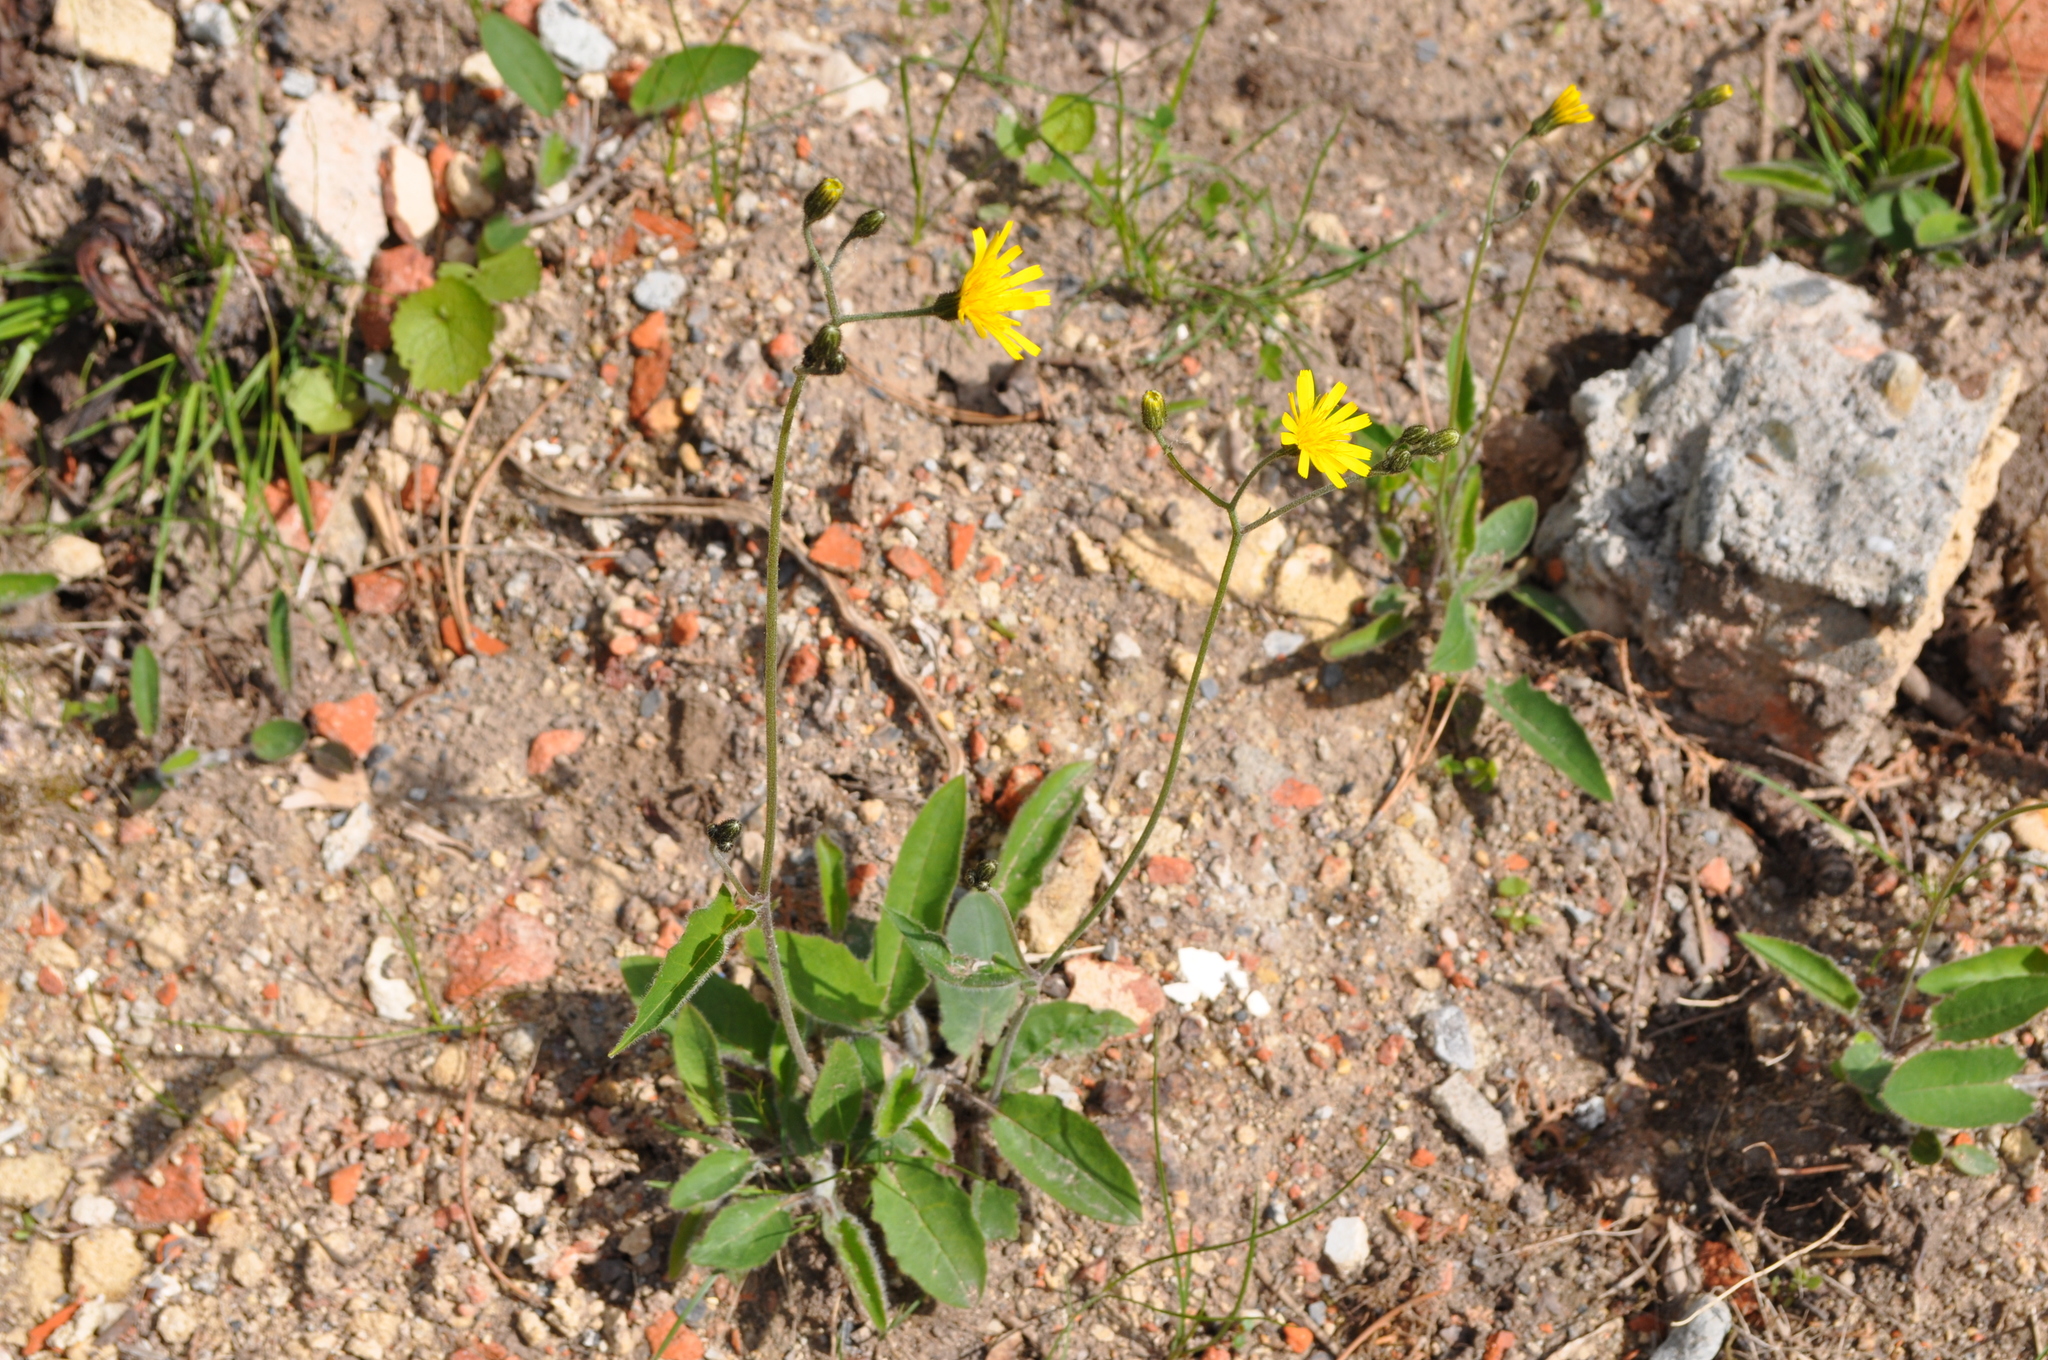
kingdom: Plantae
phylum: Tracheophyta
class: Magnoliopsida
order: Asterales
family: Asteraceae
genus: Hieracium
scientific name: Hieracium murorum
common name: Wall hawkweed
